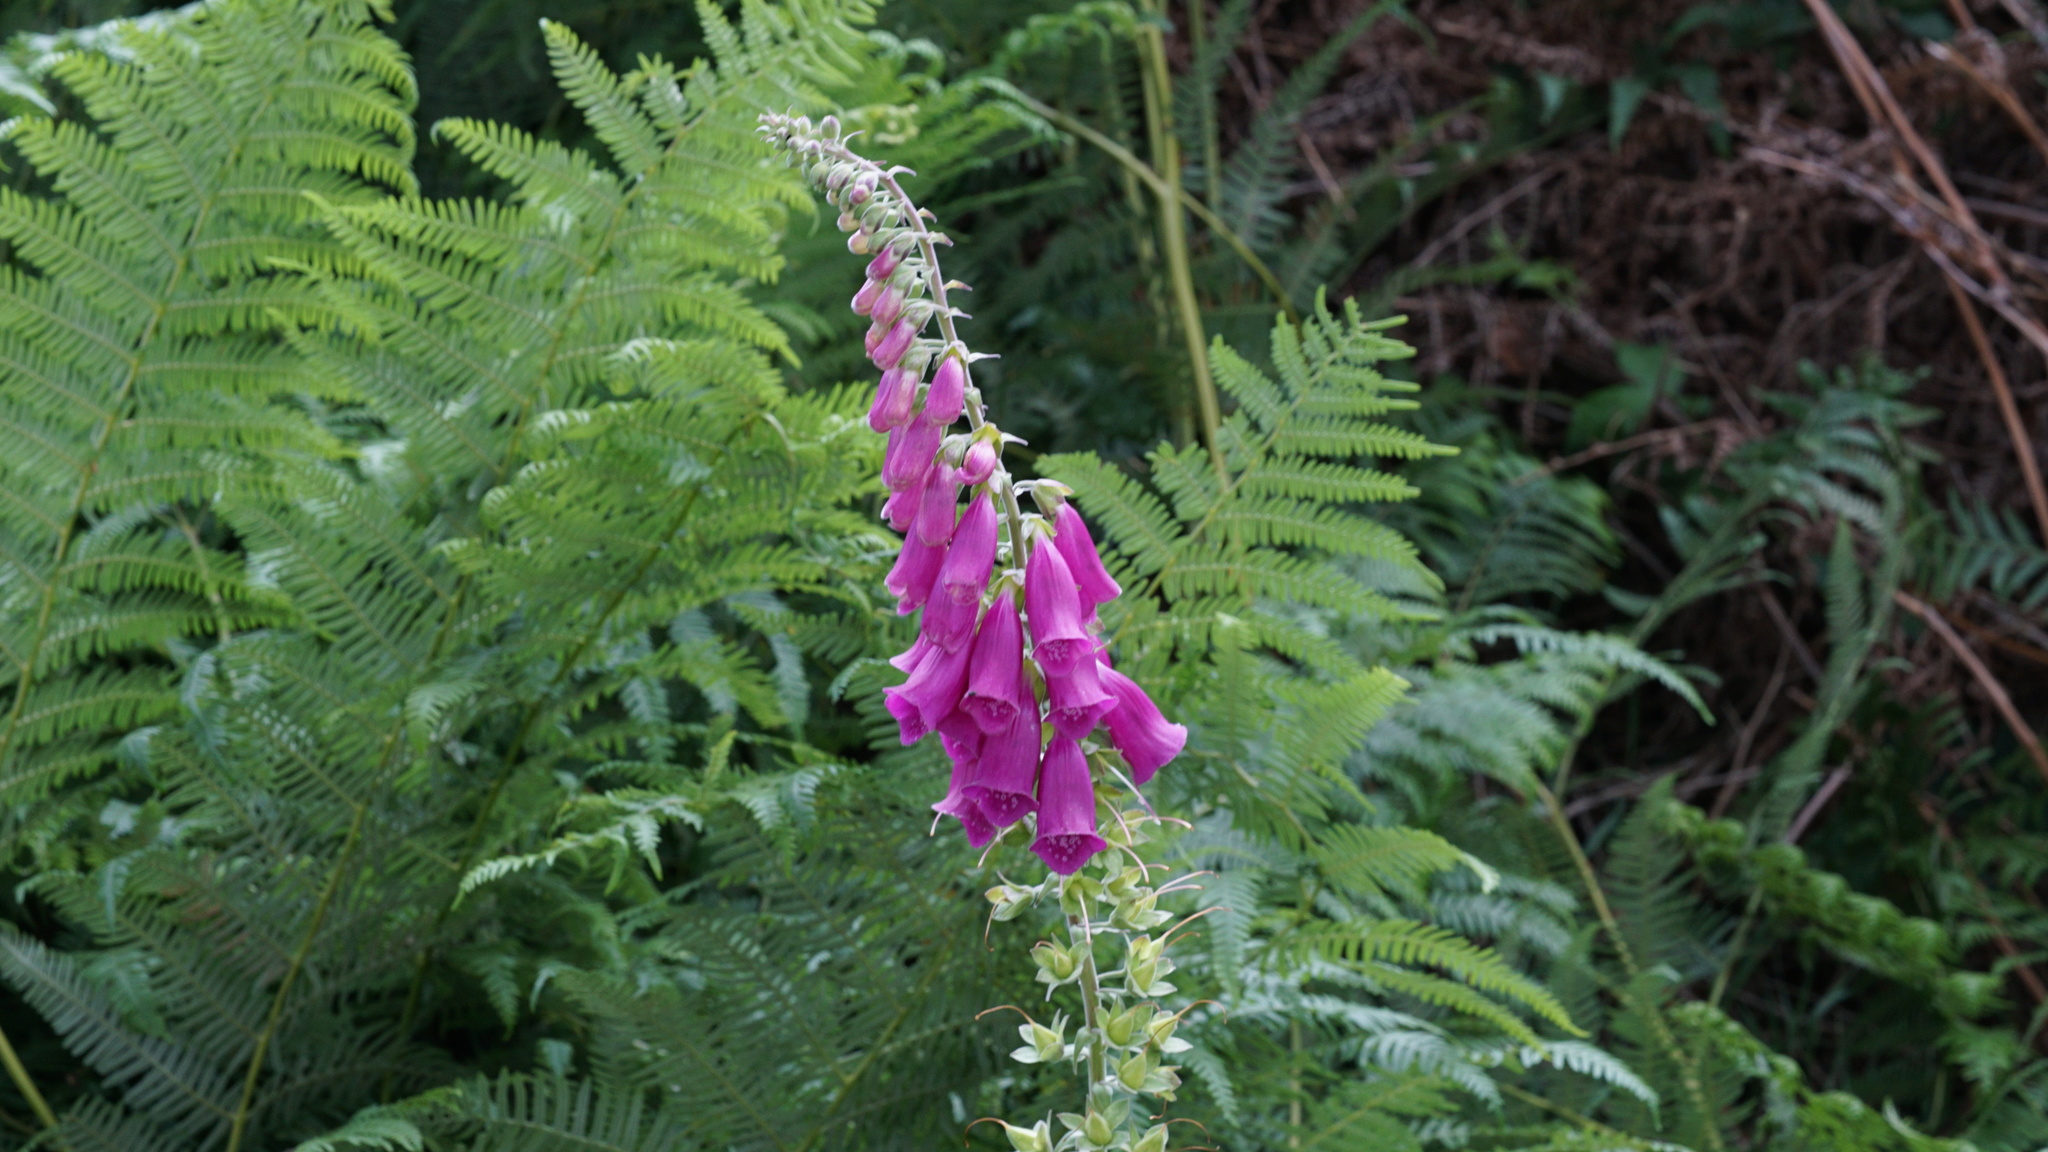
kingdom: Plantae
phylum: Tracheophyta
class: Magnoliopsida
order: Lamiales
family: Plantaginaceae
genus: Digitalis
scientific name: Digitalis purpurea
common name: Foxglove
